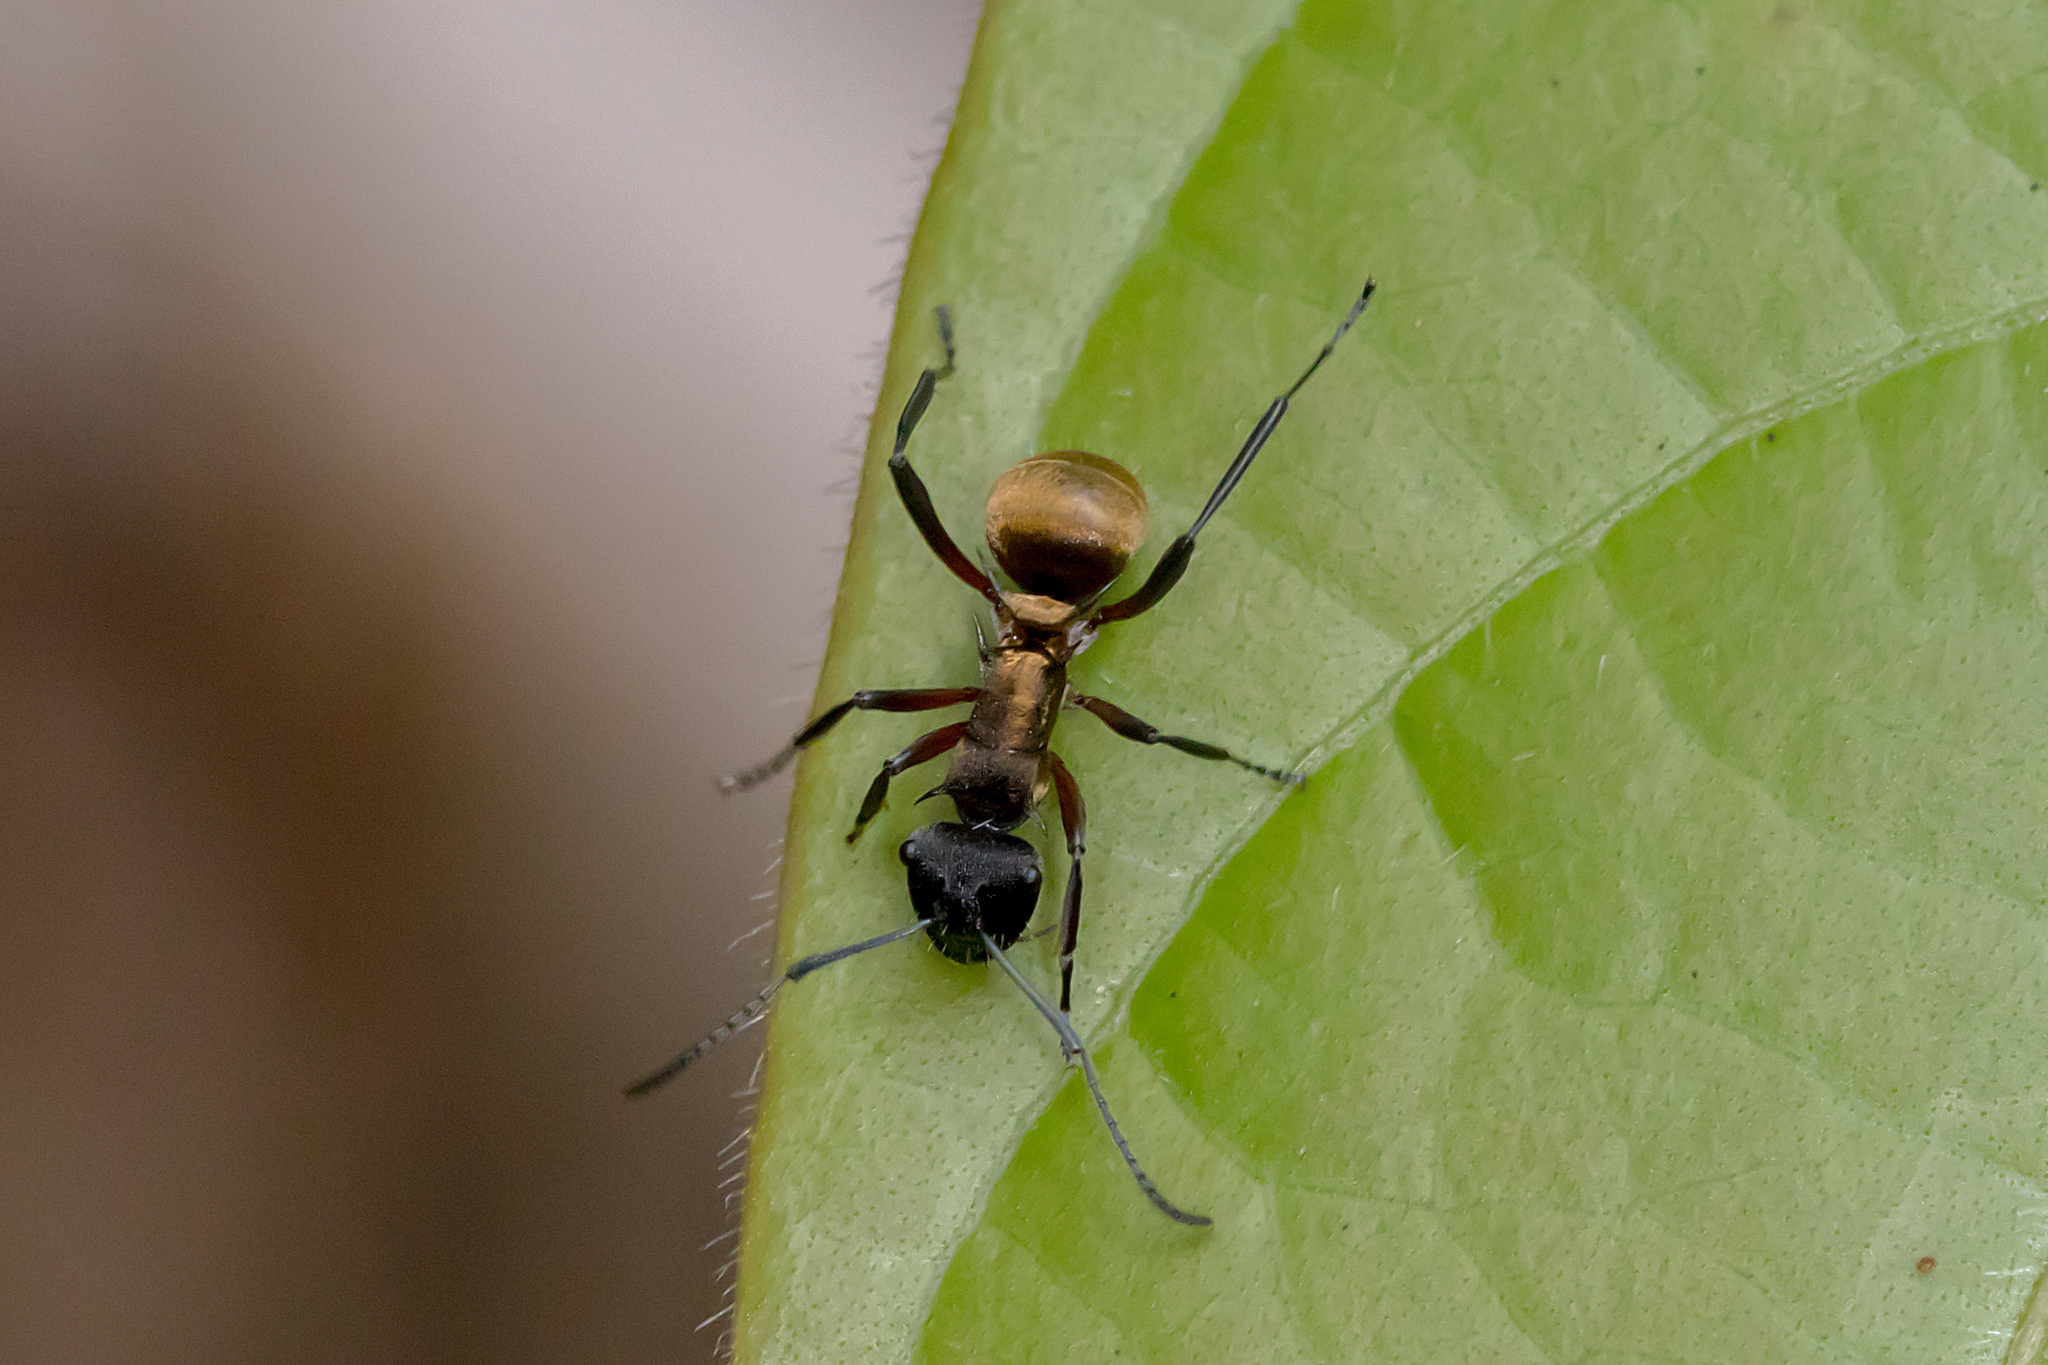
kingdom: Animalia
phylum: Arthropoda
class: Insecta
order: Hymenoptera
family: Formicidae
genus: Polyrhachis
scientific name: Polyrhachis rufifemur
